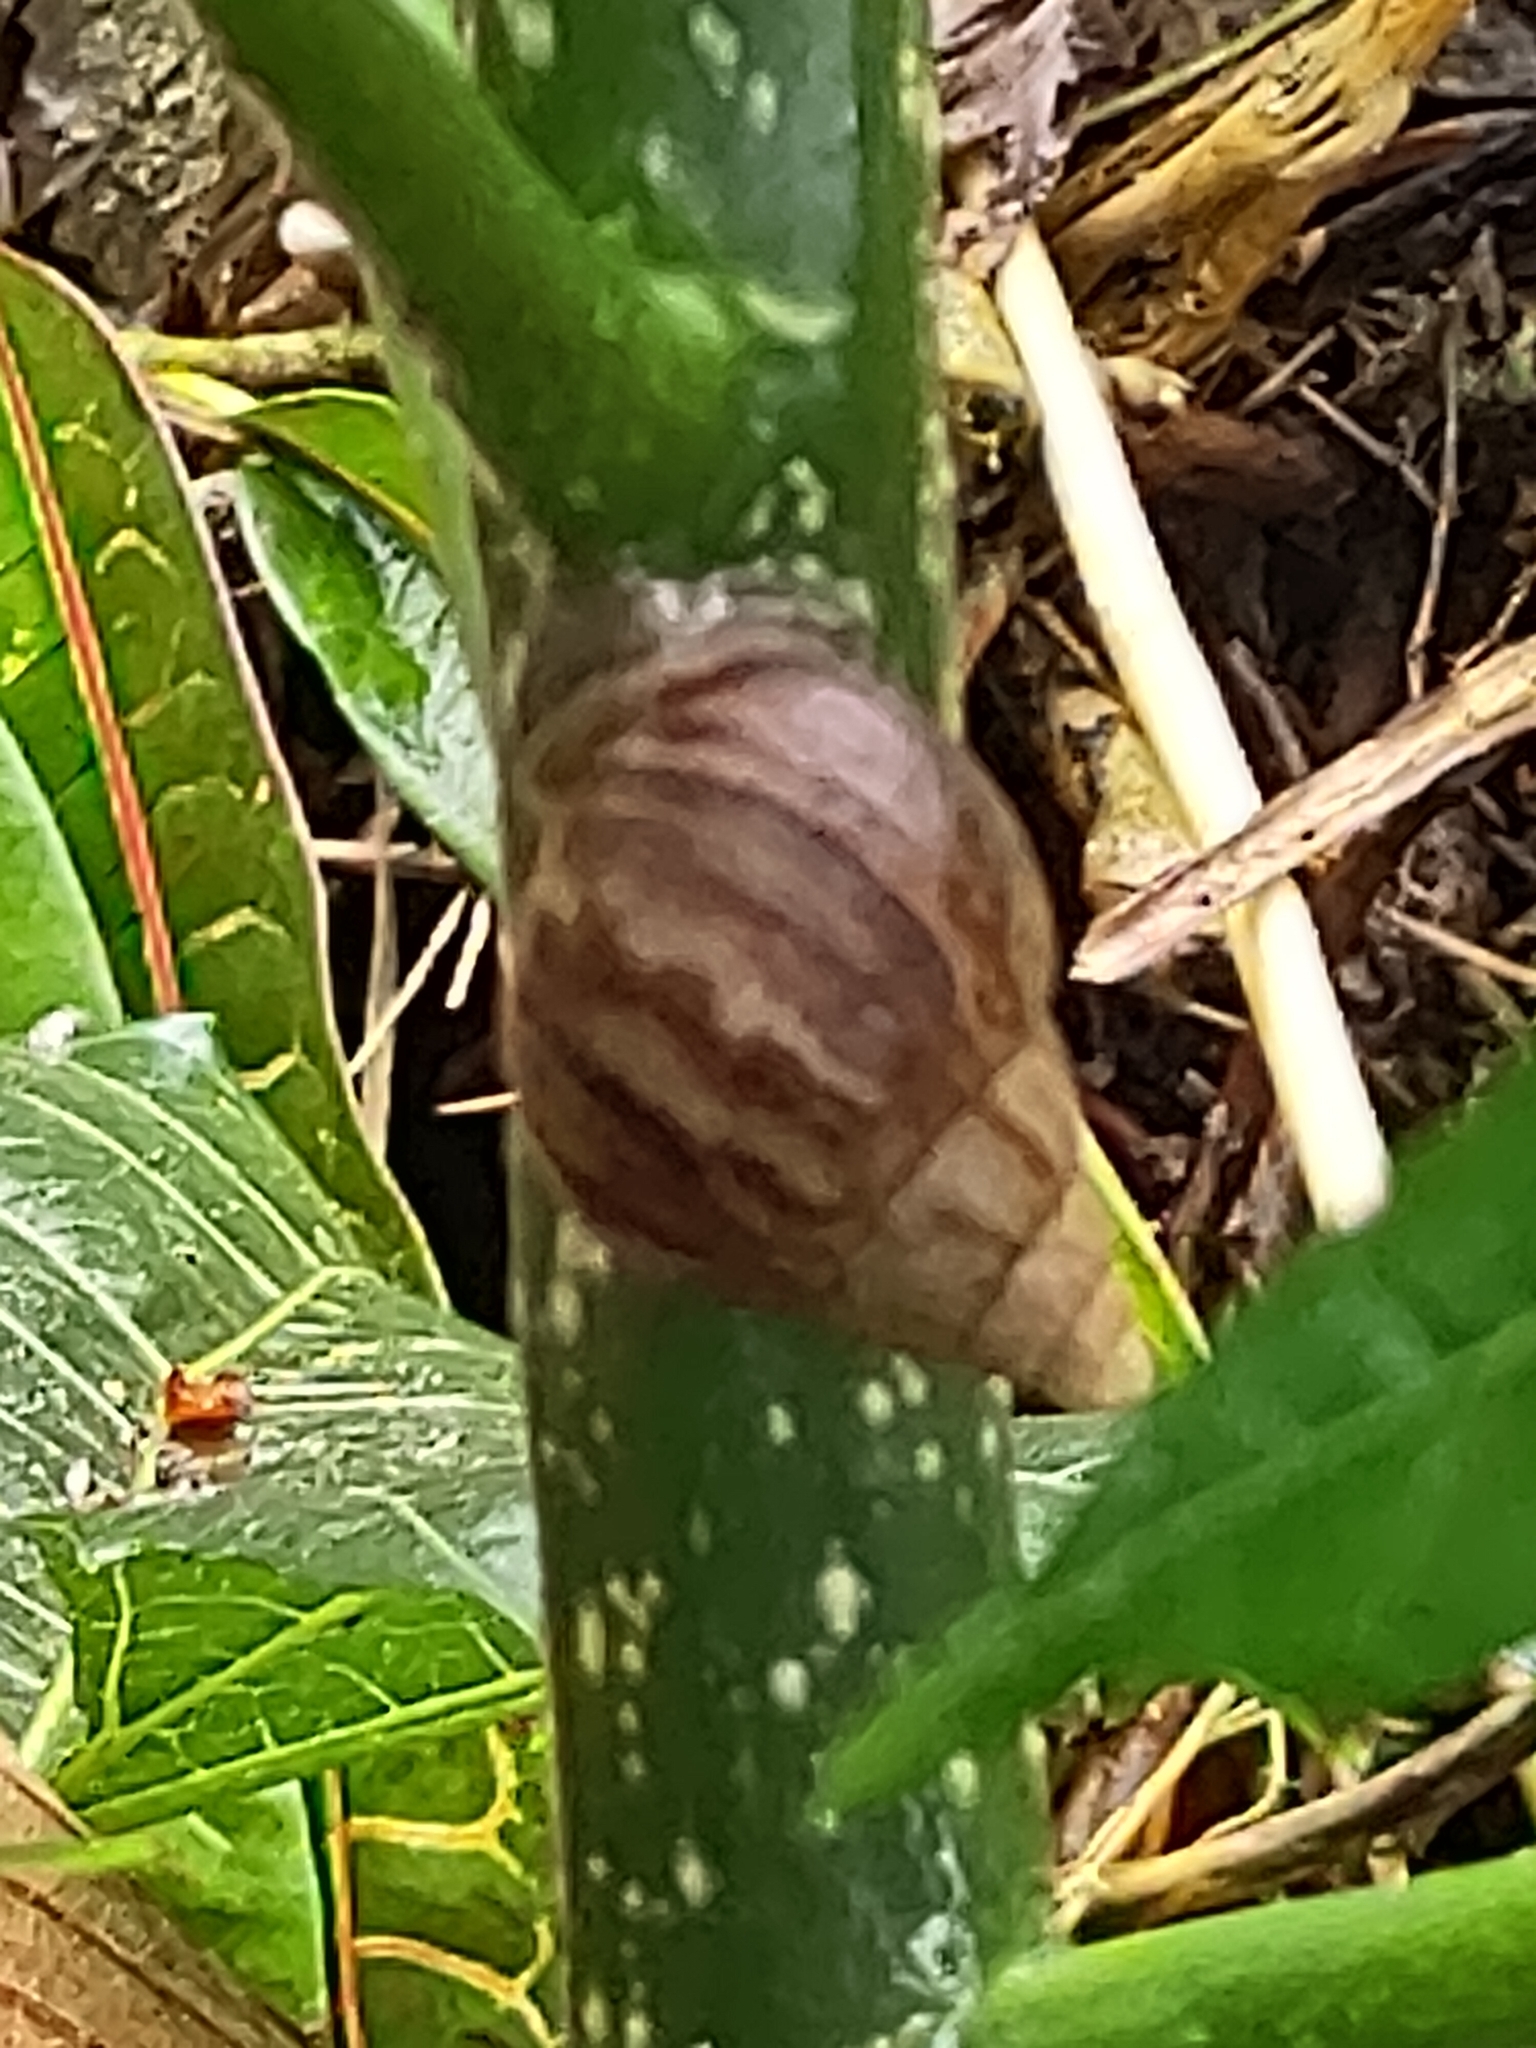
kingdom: Animalia
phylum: Mollusca
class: Gastropoda
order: Stylommatophora
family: Achatinidae
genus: Lissachatina
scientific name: Lissachatina fulica
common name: Giant african snail
